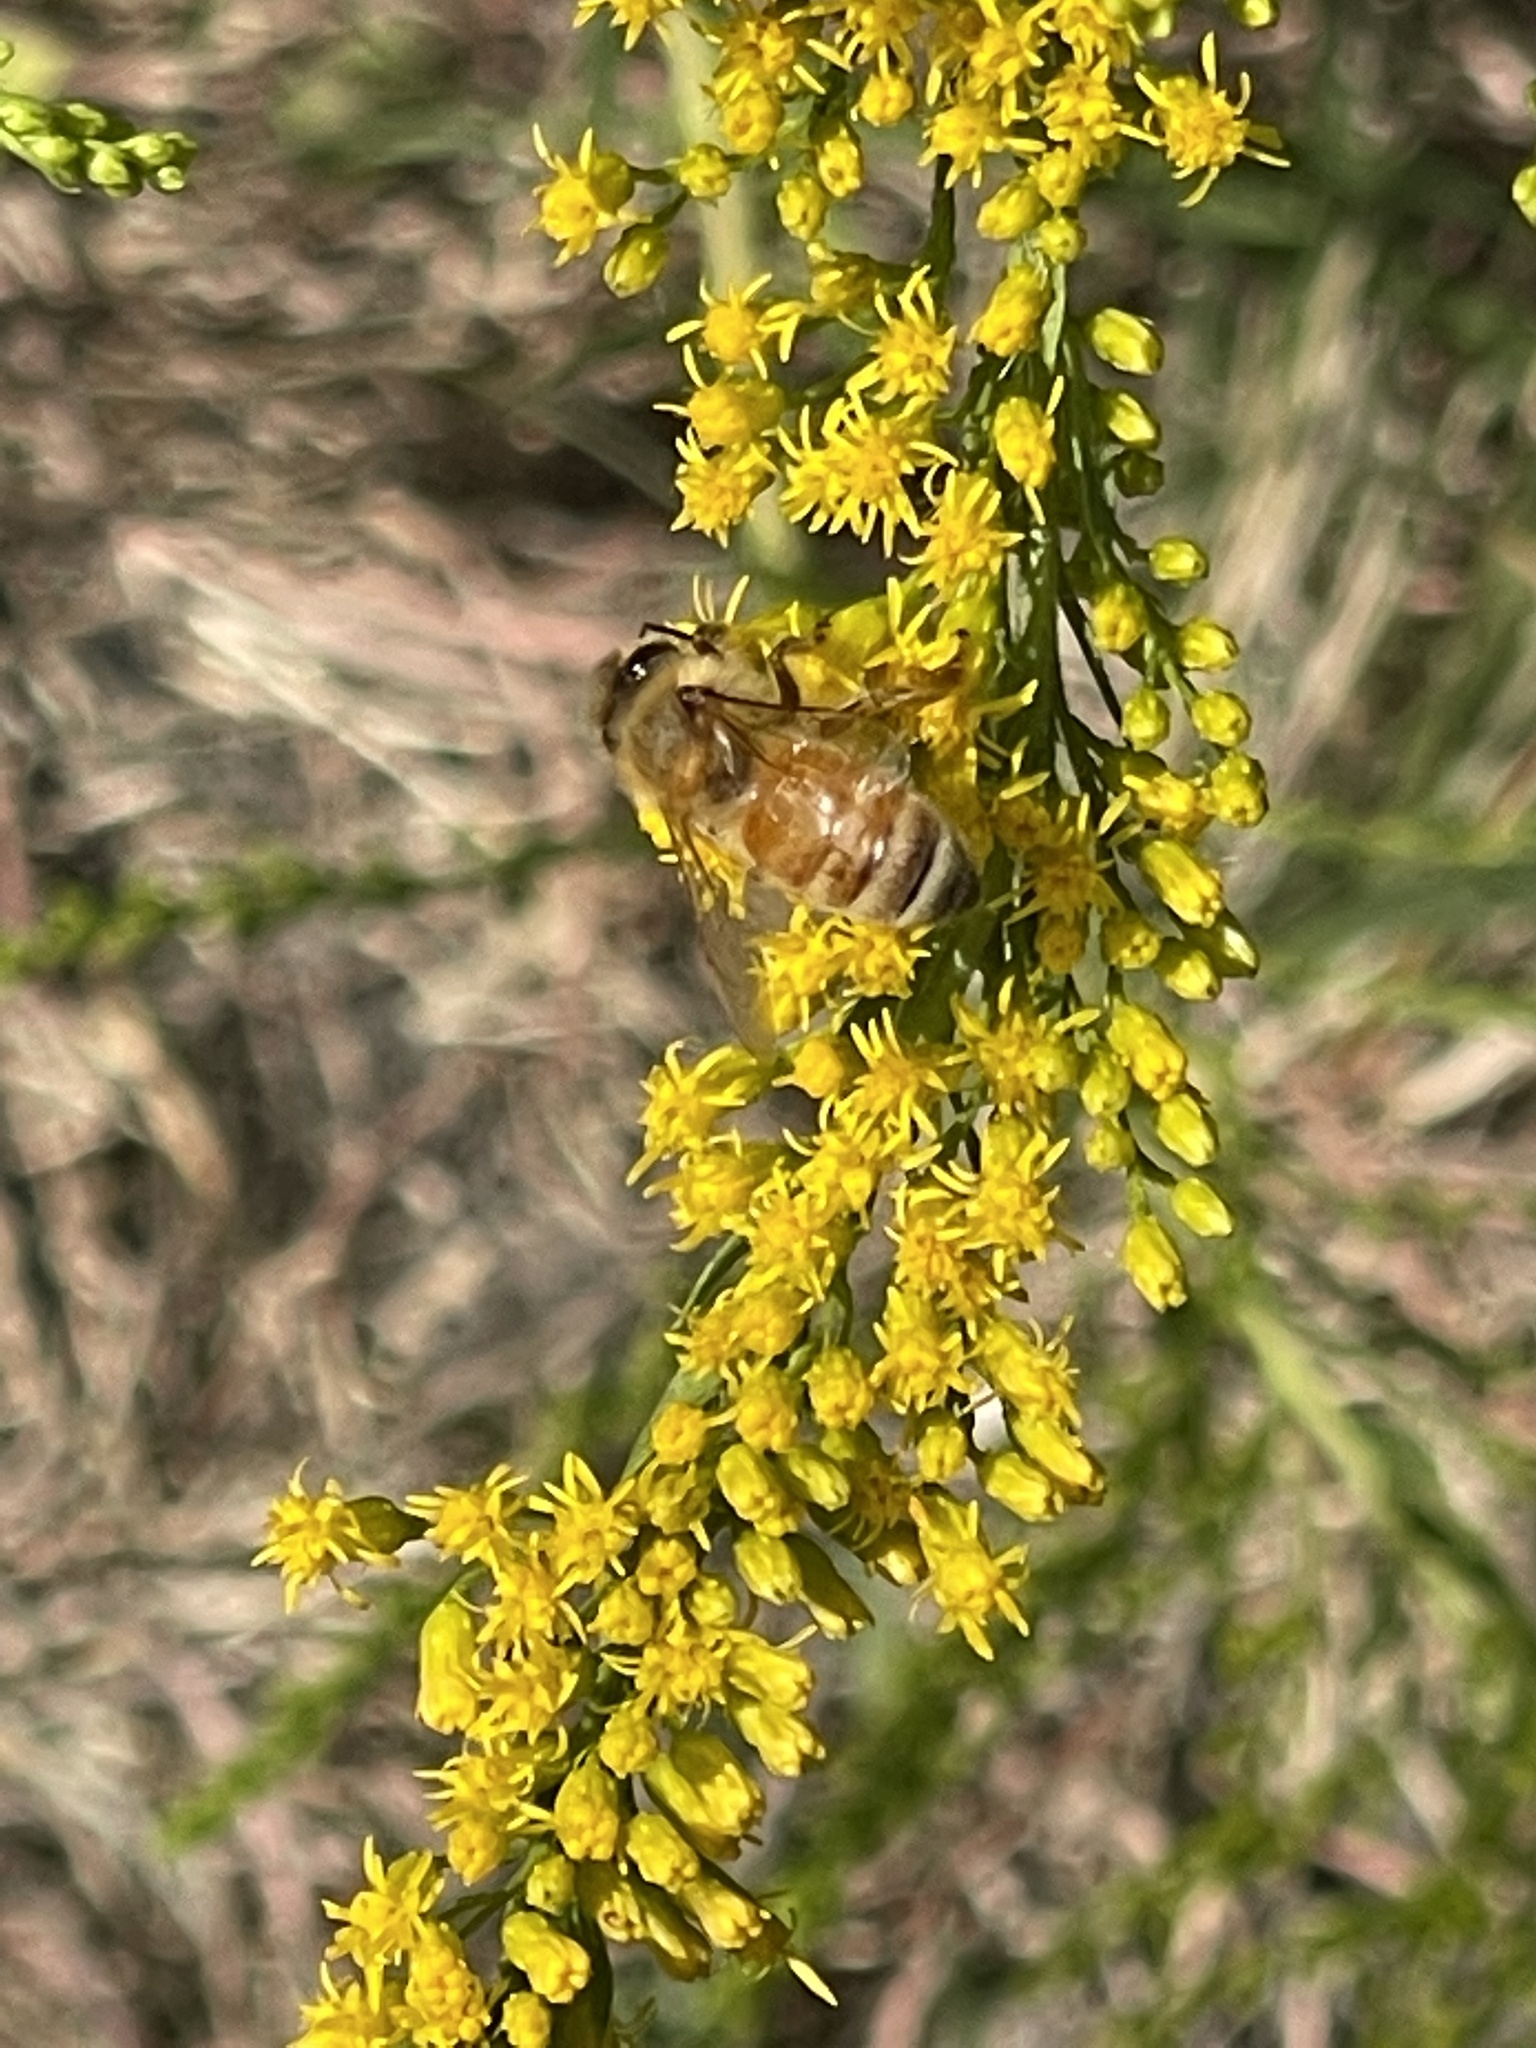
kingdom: Animalia
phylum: Arthropoda
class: Insecta
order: Hymenoptera
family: Apidae
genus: Apis
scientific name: Apis mellifera
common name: Honey bee
